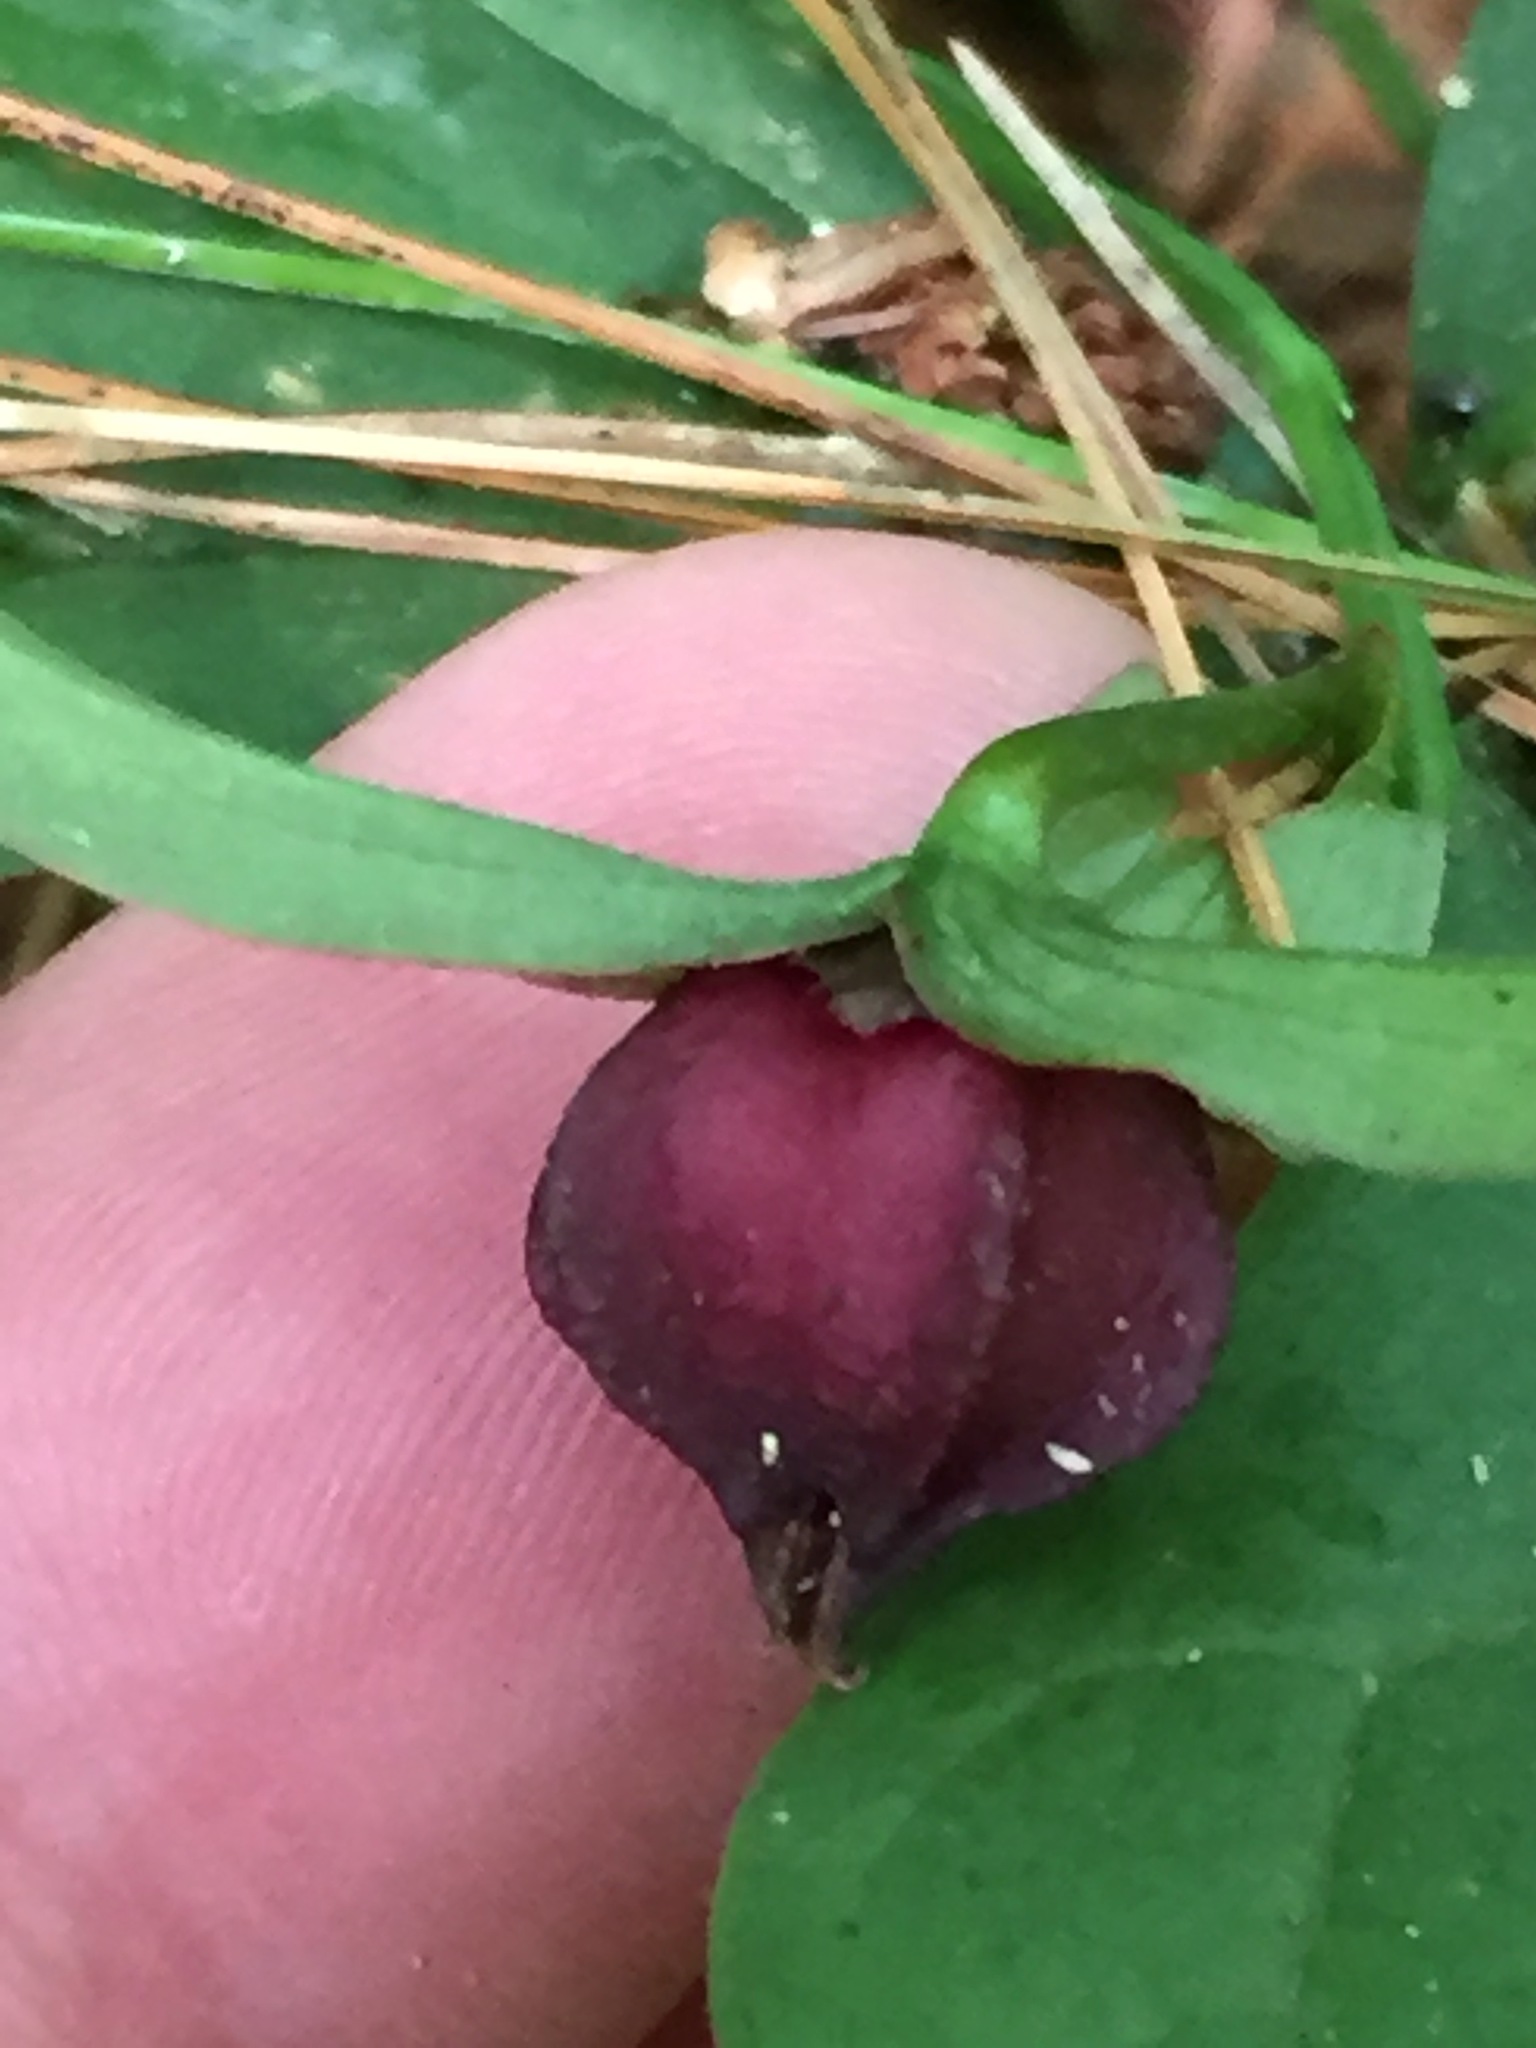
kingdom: Plantae
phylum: Tracheophyta
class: Liliopsida
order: Liliales
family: Melanthiaceae
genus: Trillium
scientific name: Trillium erectum
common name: Purple trillium
